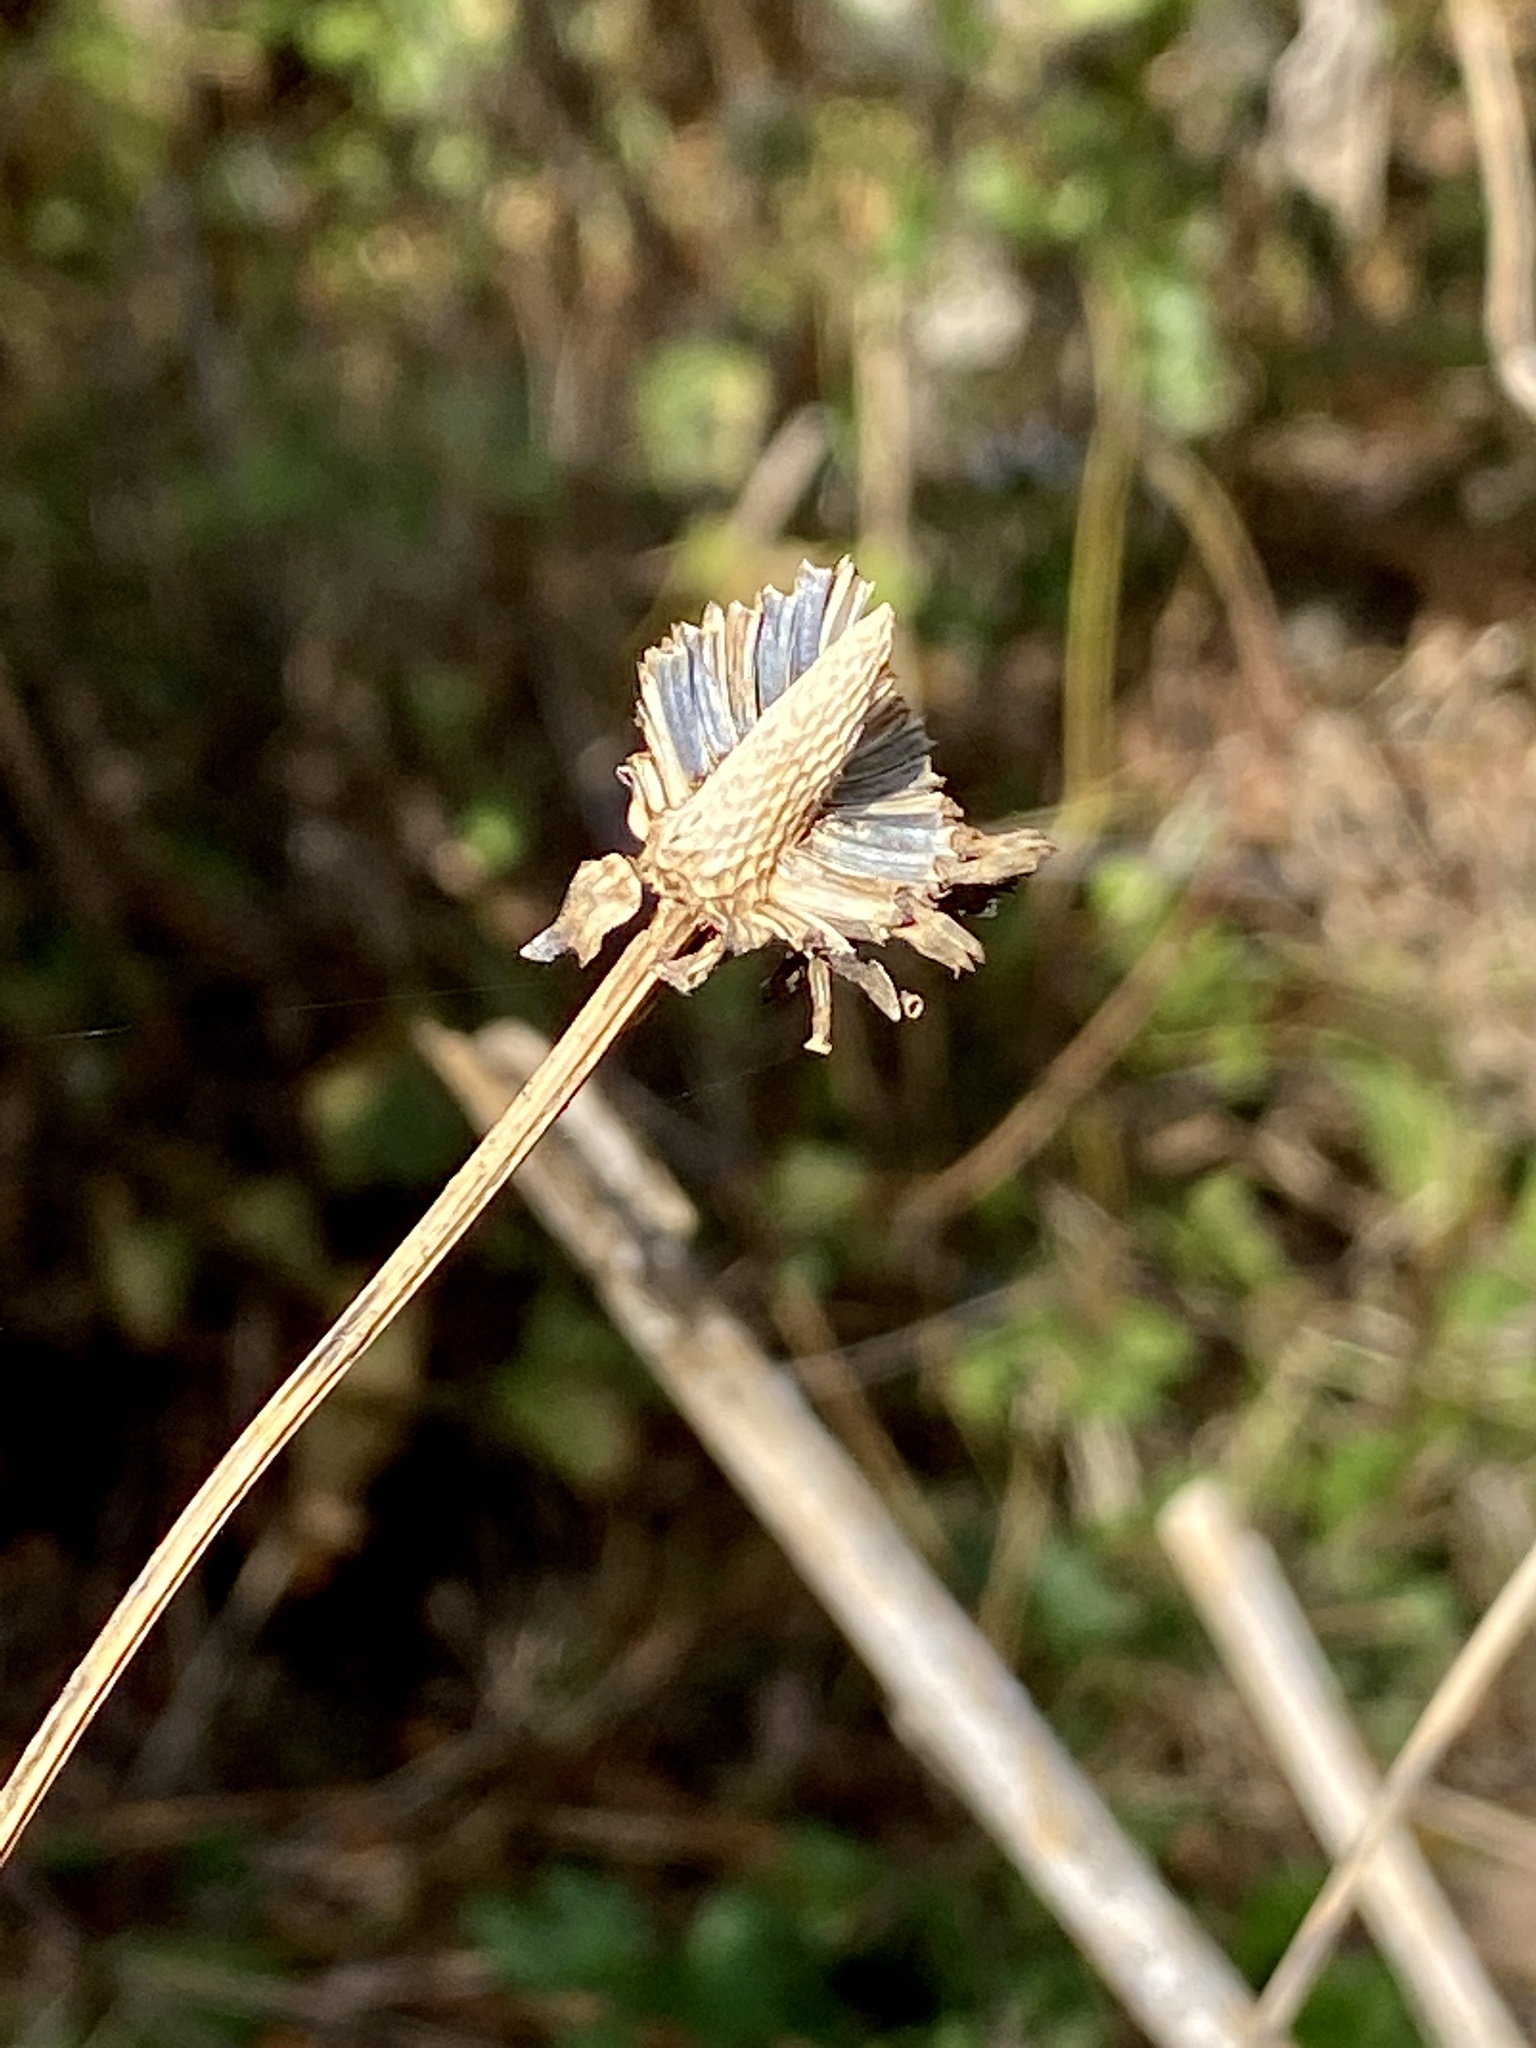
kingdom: Plantae
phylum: Tracheophyta
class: Magnoliopsida
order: Asterales
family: Asteraceae
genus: Rudbeckia
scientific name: Rudbeckia laciniata
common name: Coneflower
